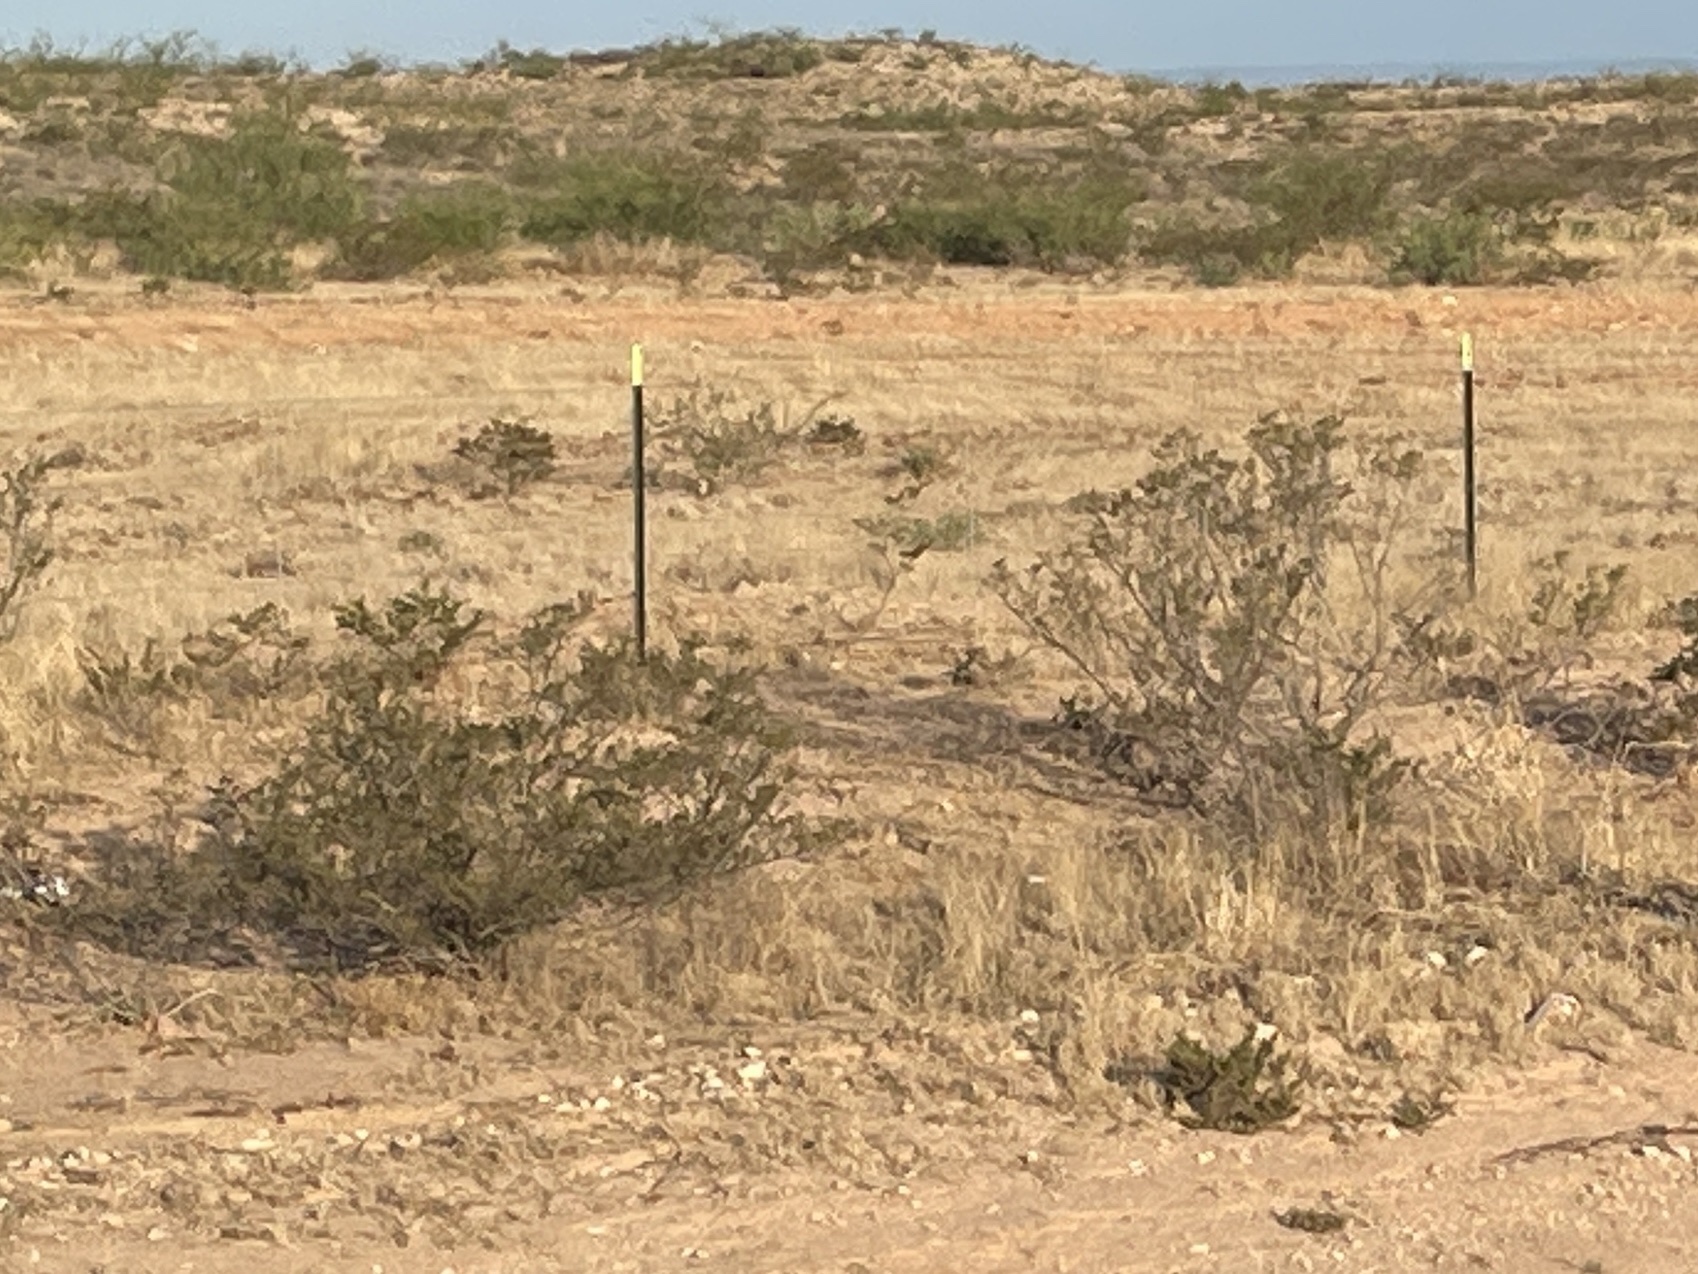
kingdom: Plantae
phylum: Tracheophyta
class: Magnoliopsida
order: Zygophyllales
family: Zygophyllaceae
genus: Larrea
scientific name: Larrea tridentata
